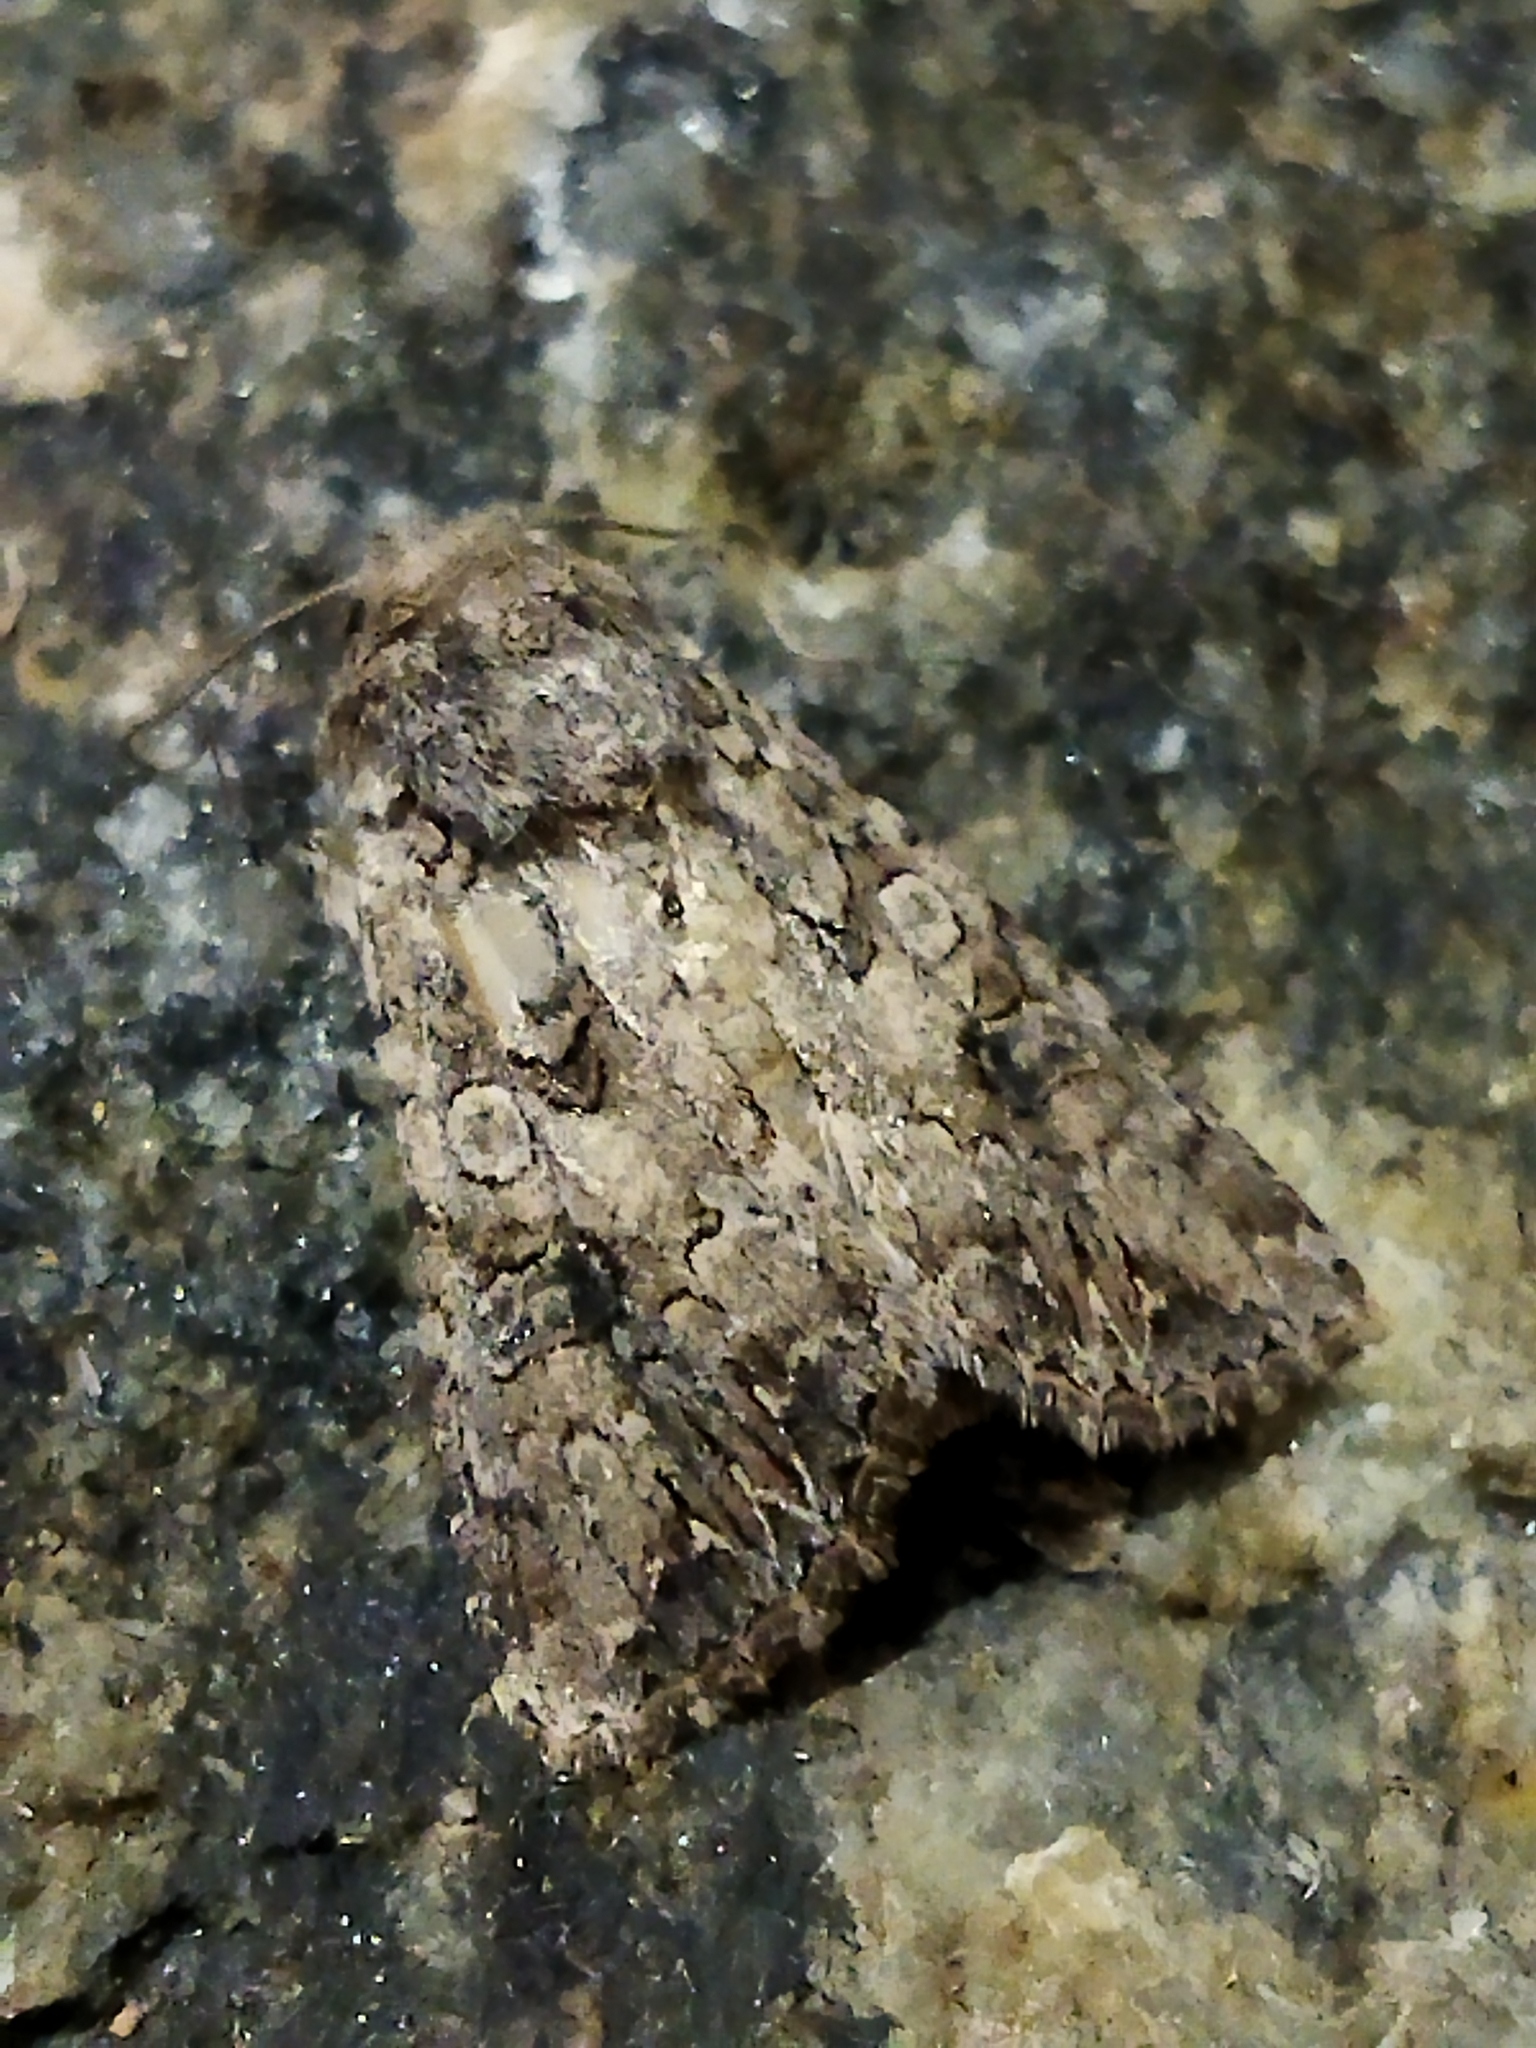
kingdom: Animalia
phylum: Arthropoda
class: Insecta
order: Lepidoptera
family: Noctuidae
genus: Anarta
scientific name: Anarta trifolii
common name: Clover cutworm moth
